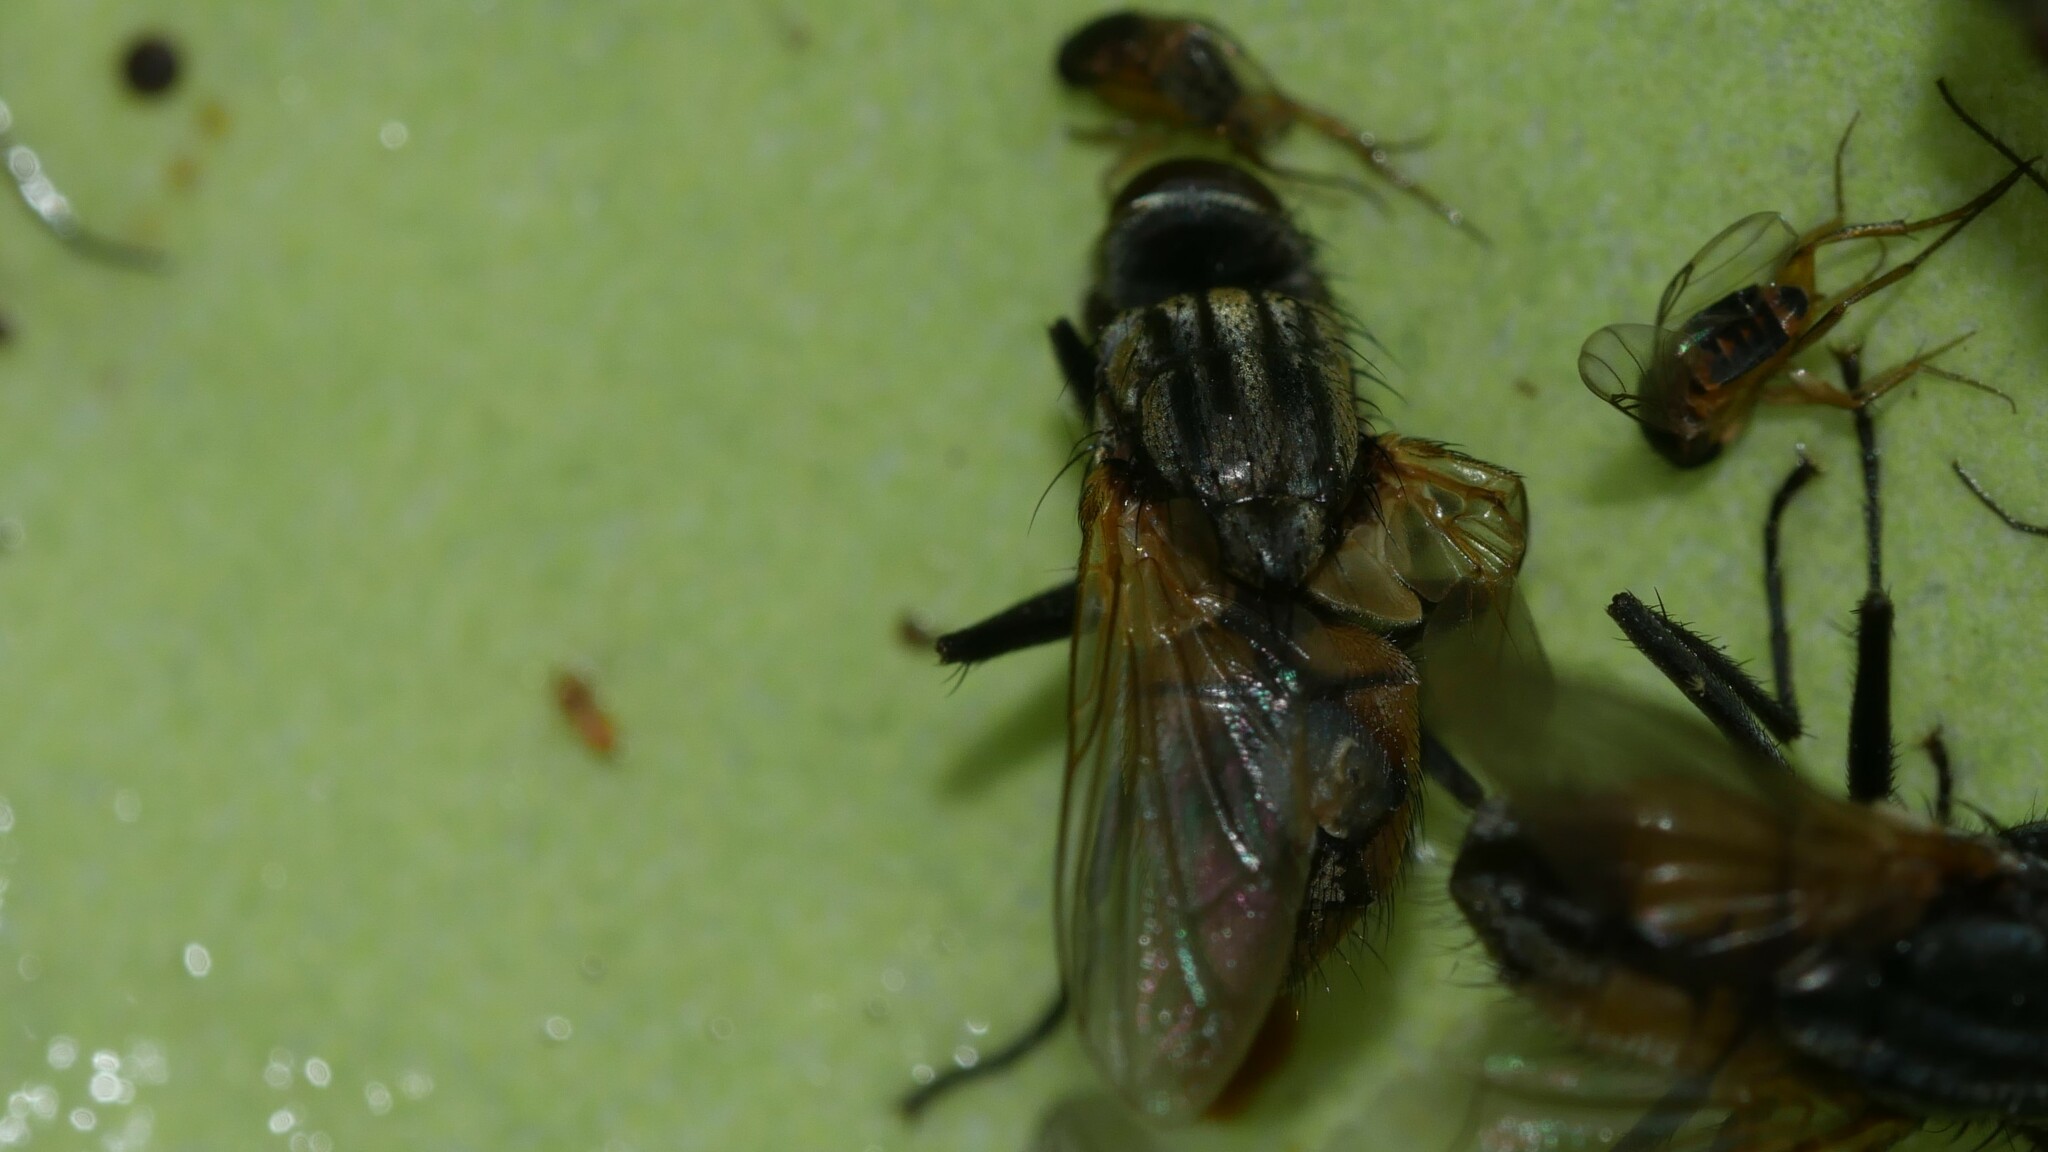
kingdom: Animalia
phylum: Arthropoda
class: Insecta
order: Diptera
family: Muscidae
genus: Musca
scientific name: Musca domestica
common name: House fly
